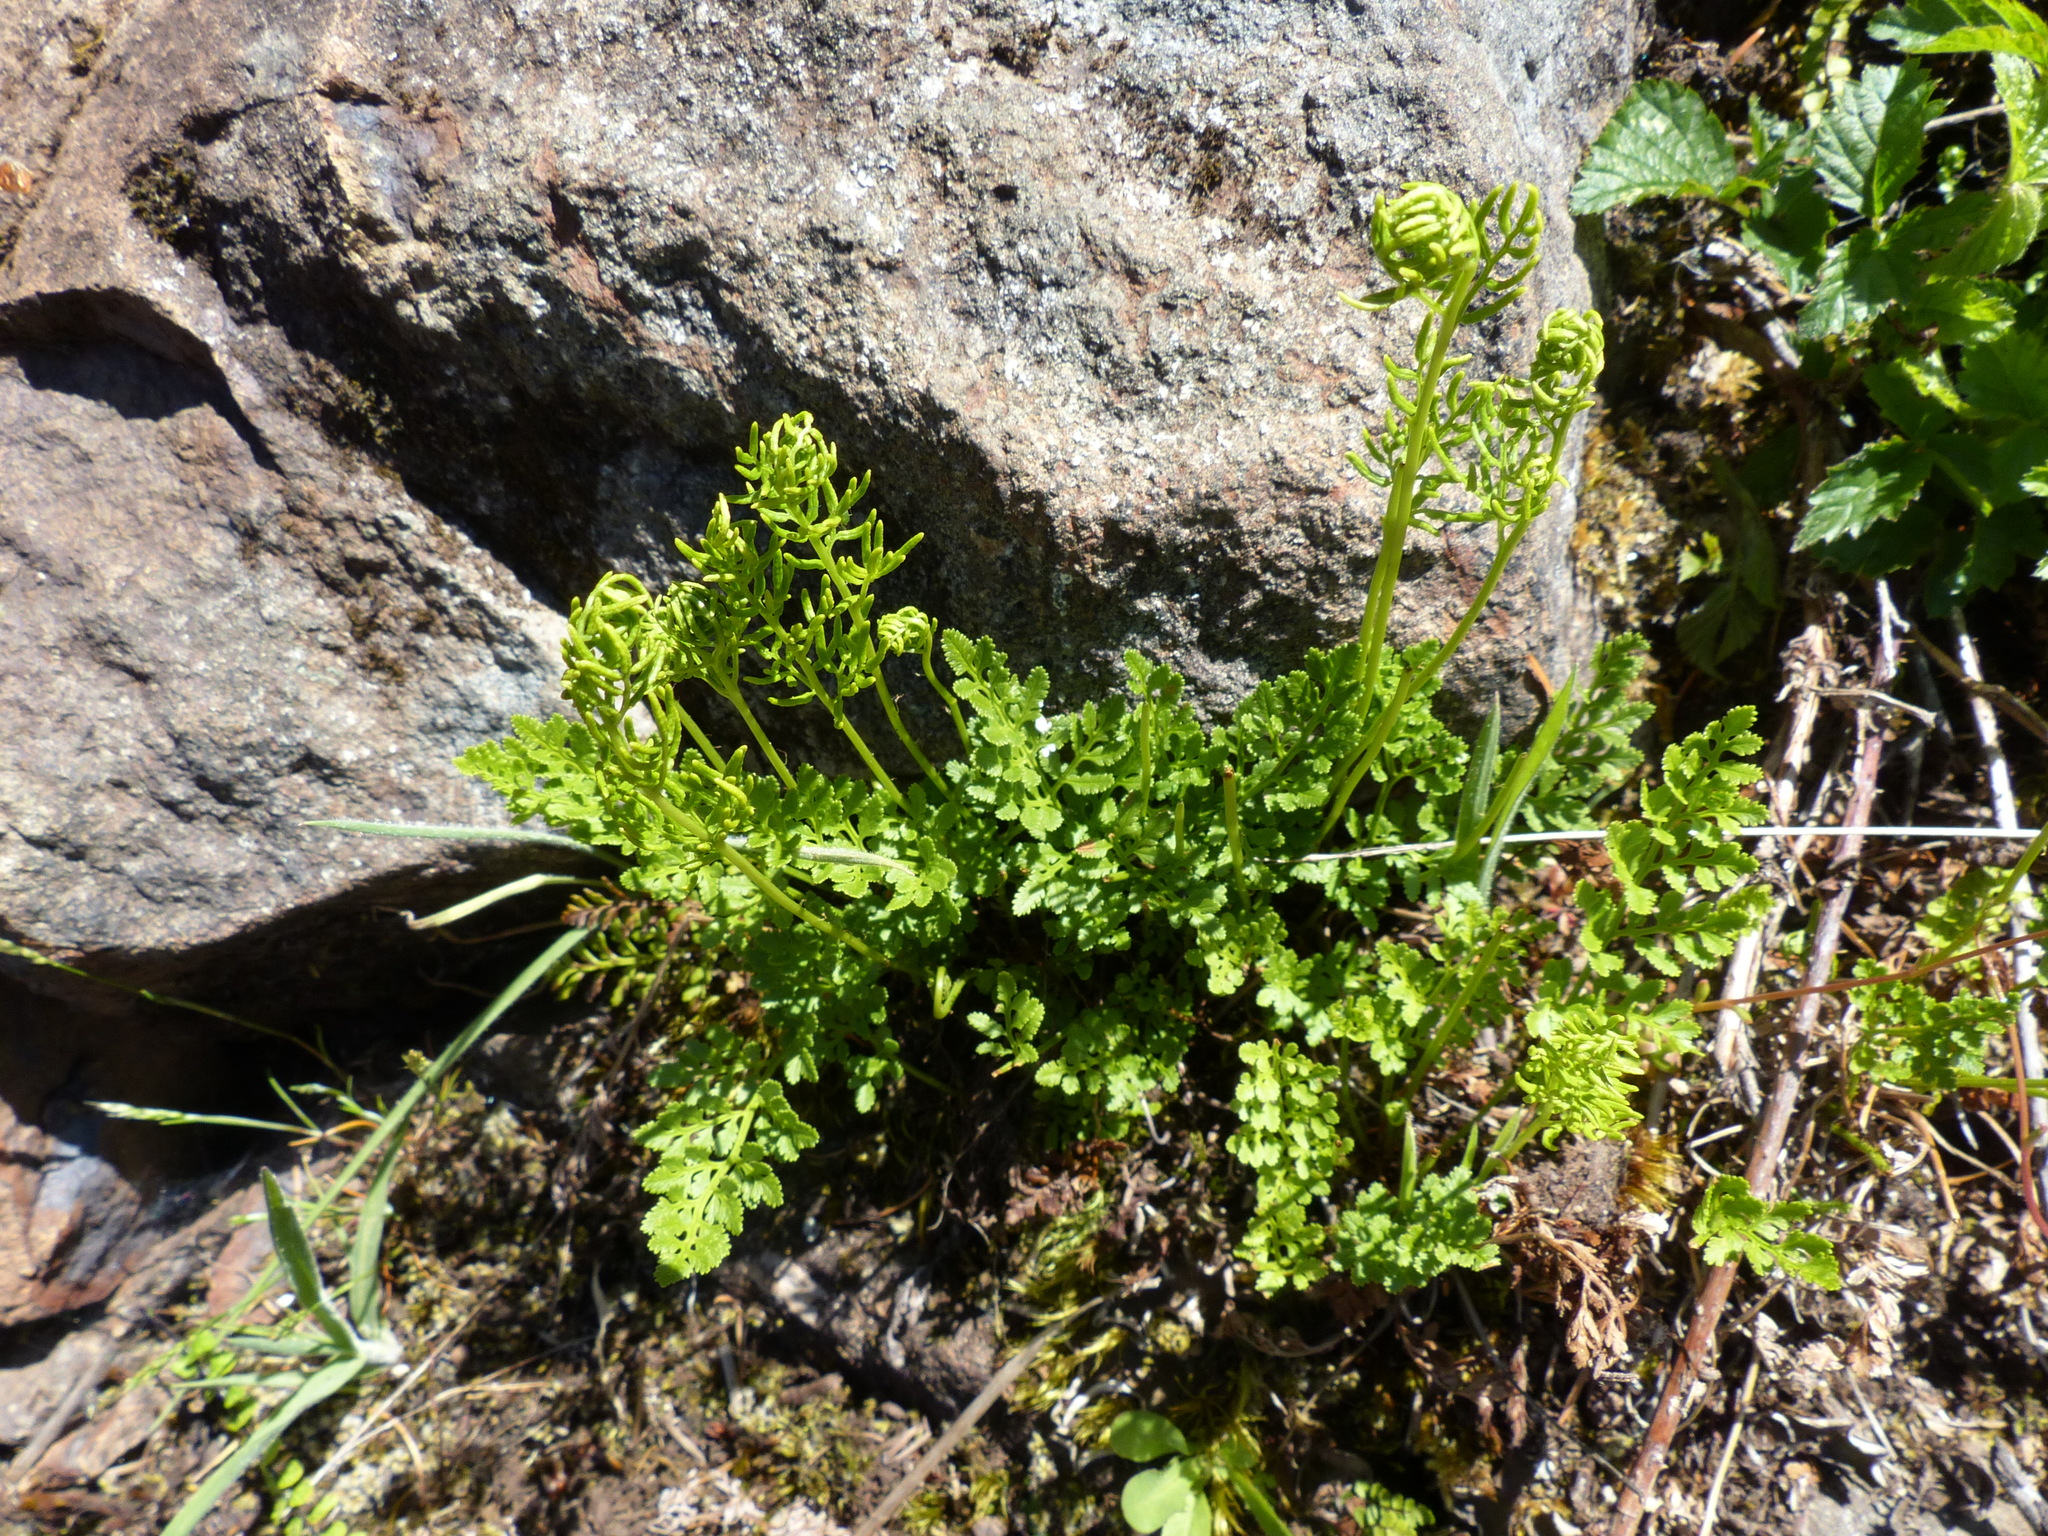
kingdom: Plantae
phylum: Tracheophyta
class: Polypodiopsida
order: Polypodiales
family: Pteridaceae
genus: Cryptogramma
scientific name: Cryptogramma acrostichoides
